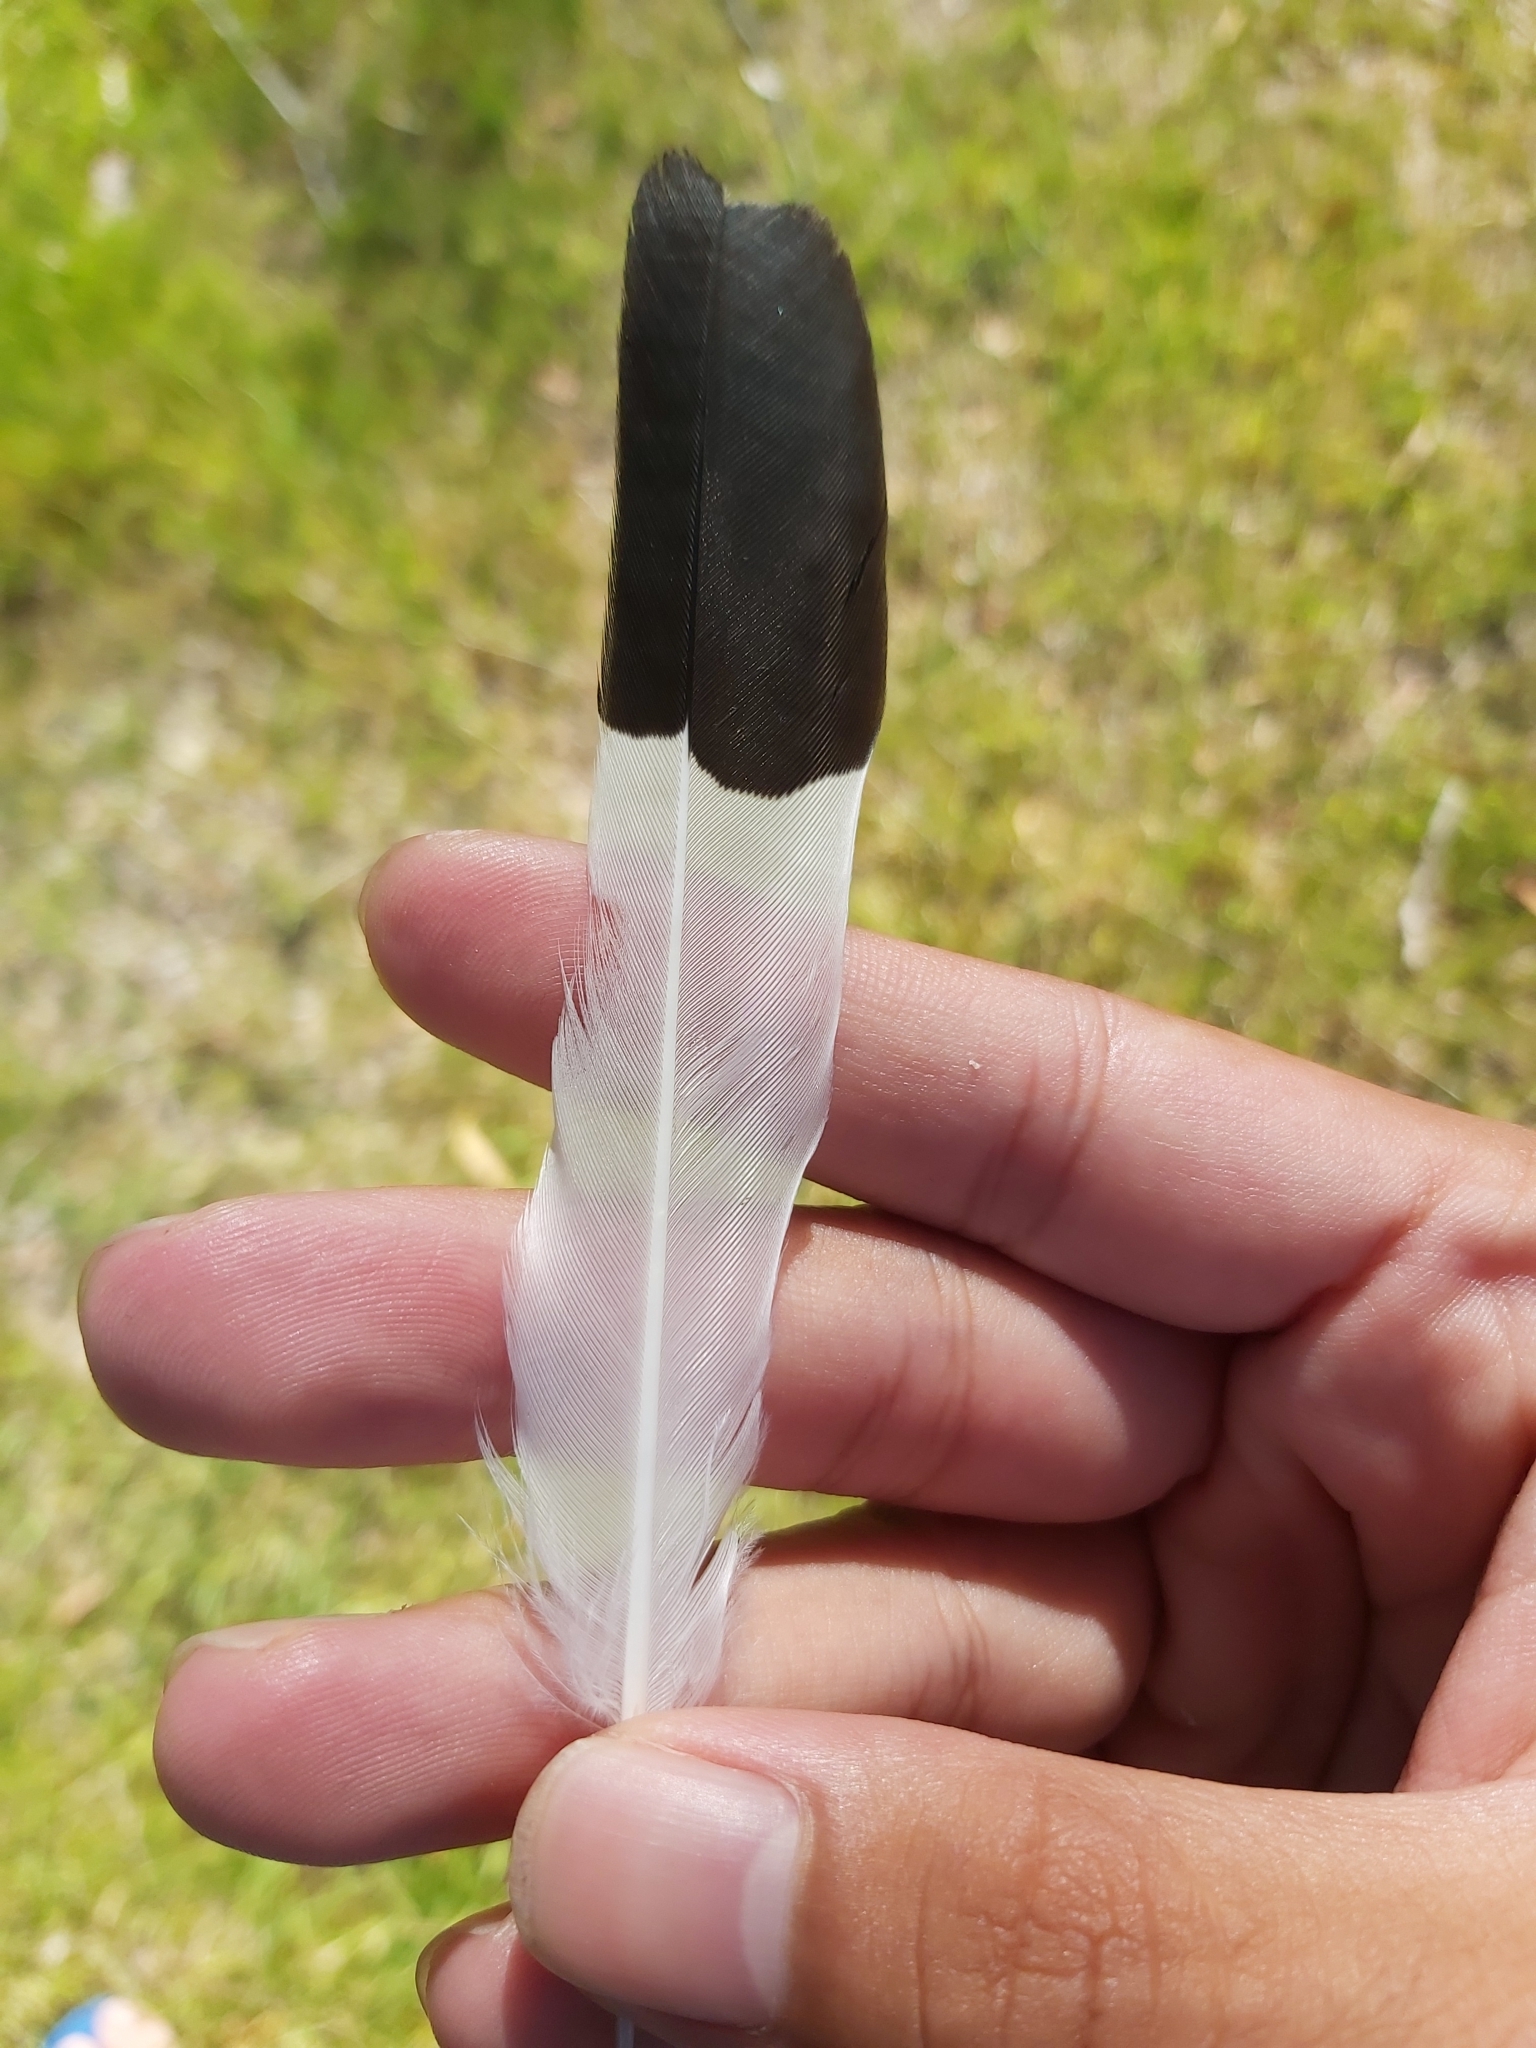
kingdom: Animalia
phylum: Chordata
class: Aves
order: Passeriformes
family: Monarchidae
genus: Grallina
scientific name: Grallina cyanoleuca
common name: Magpie-lark
